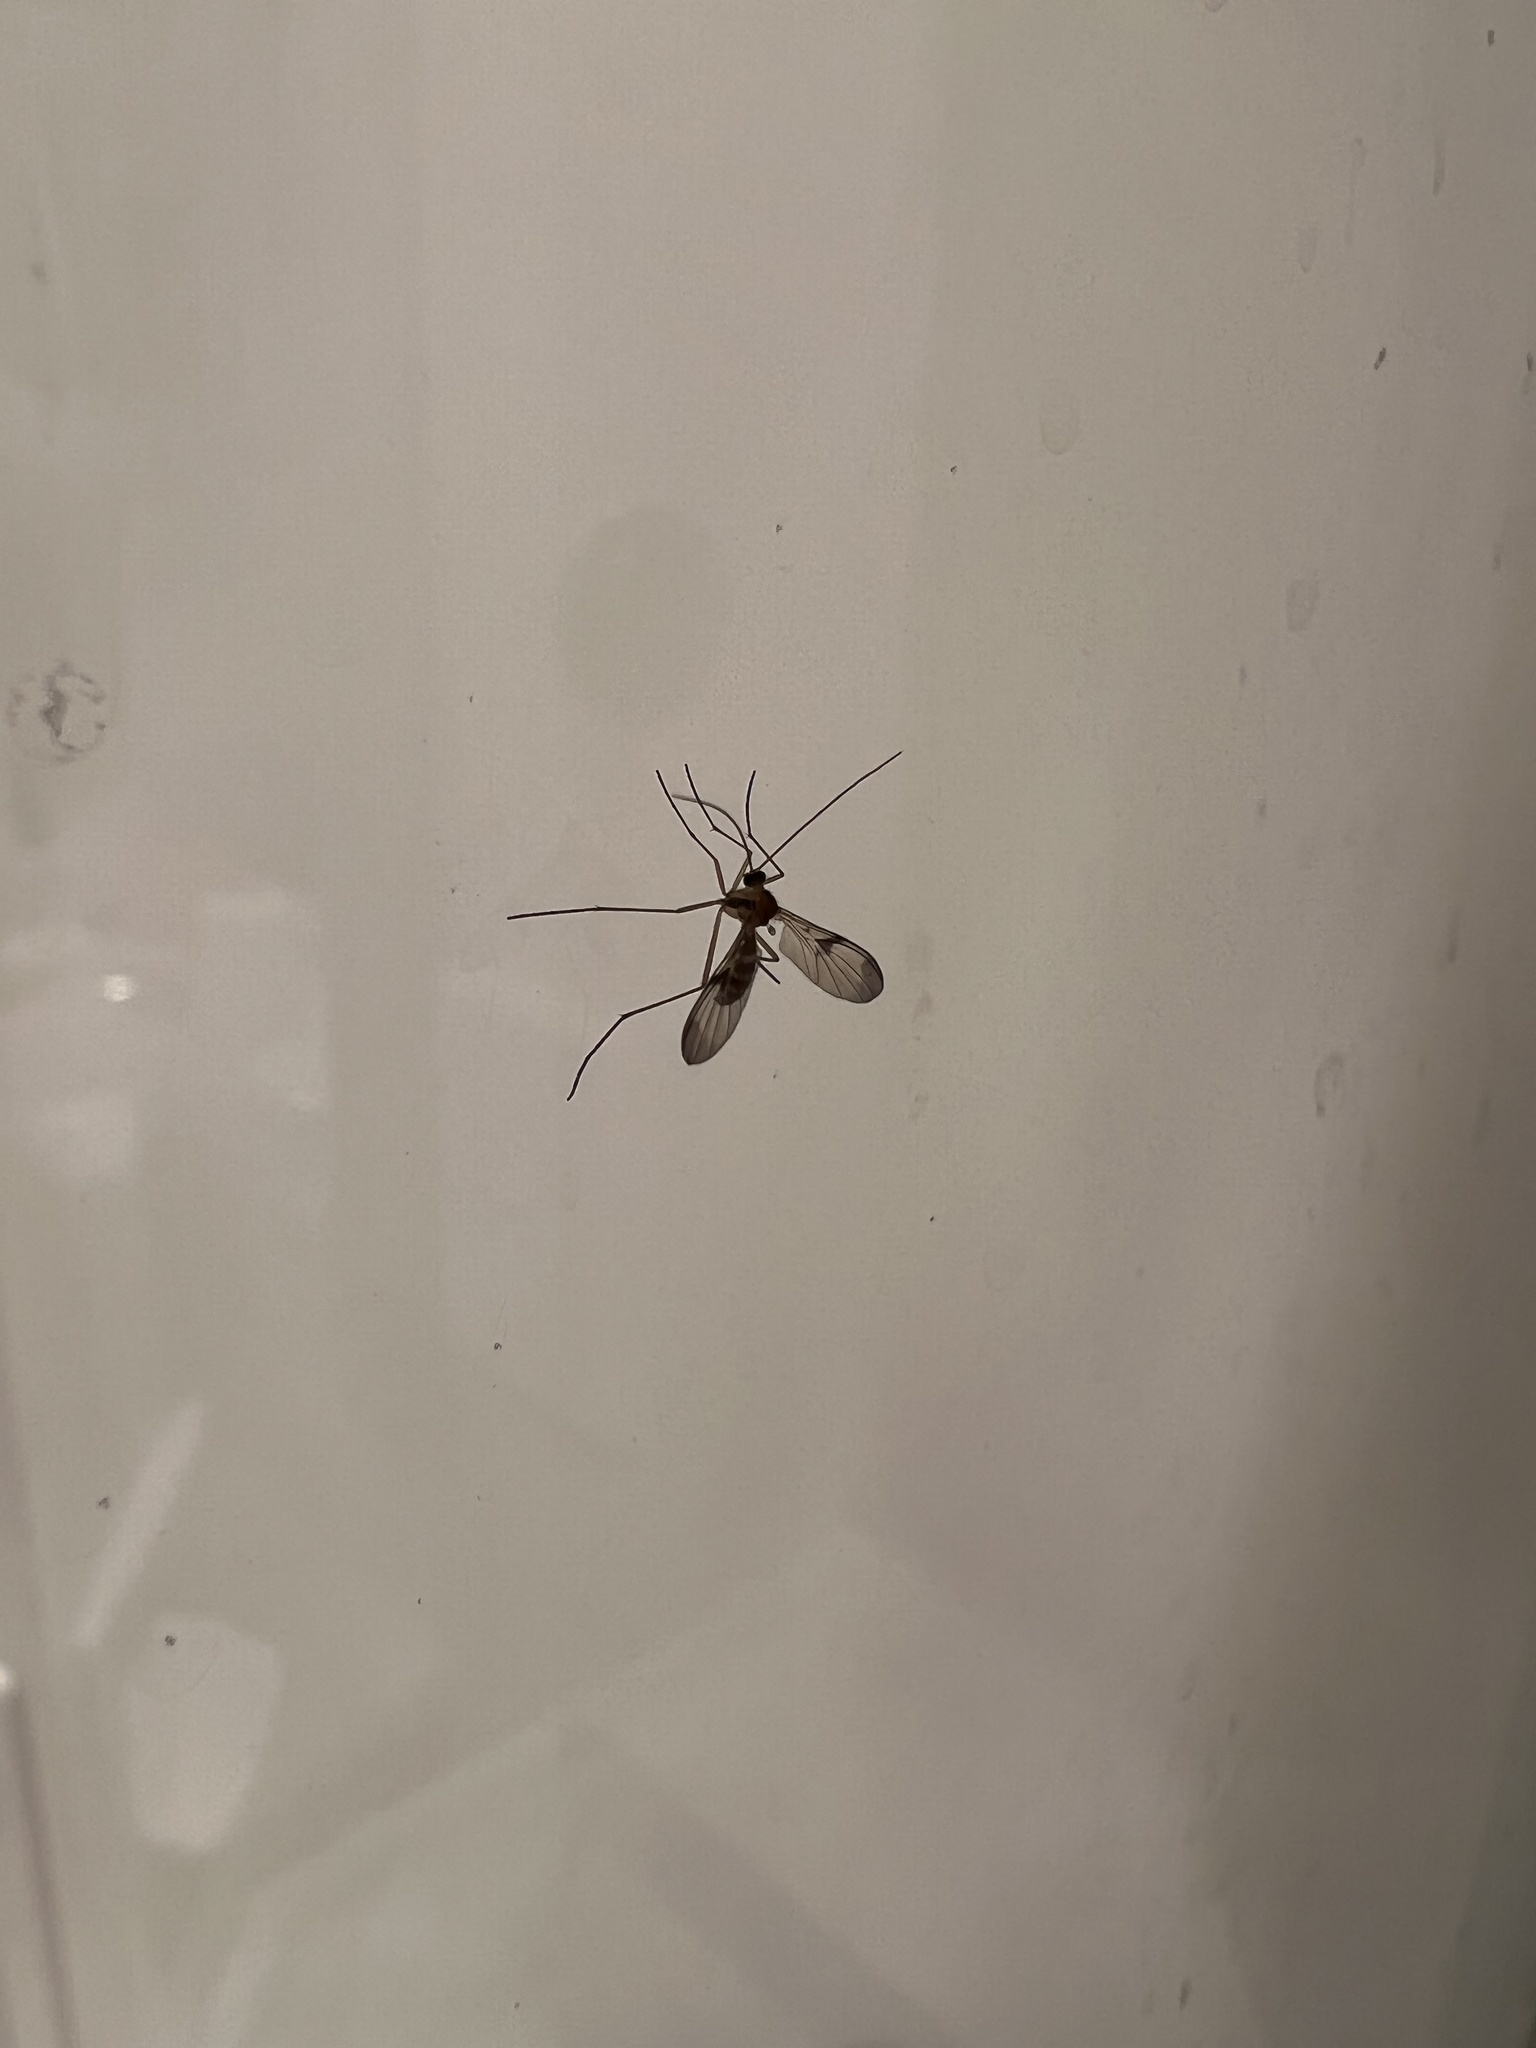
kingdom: Animalia
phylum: Arthropoda
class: Insecta
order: Diptera
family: Keroplatidae
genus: Macrocera
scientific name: Macrocera scoparia
